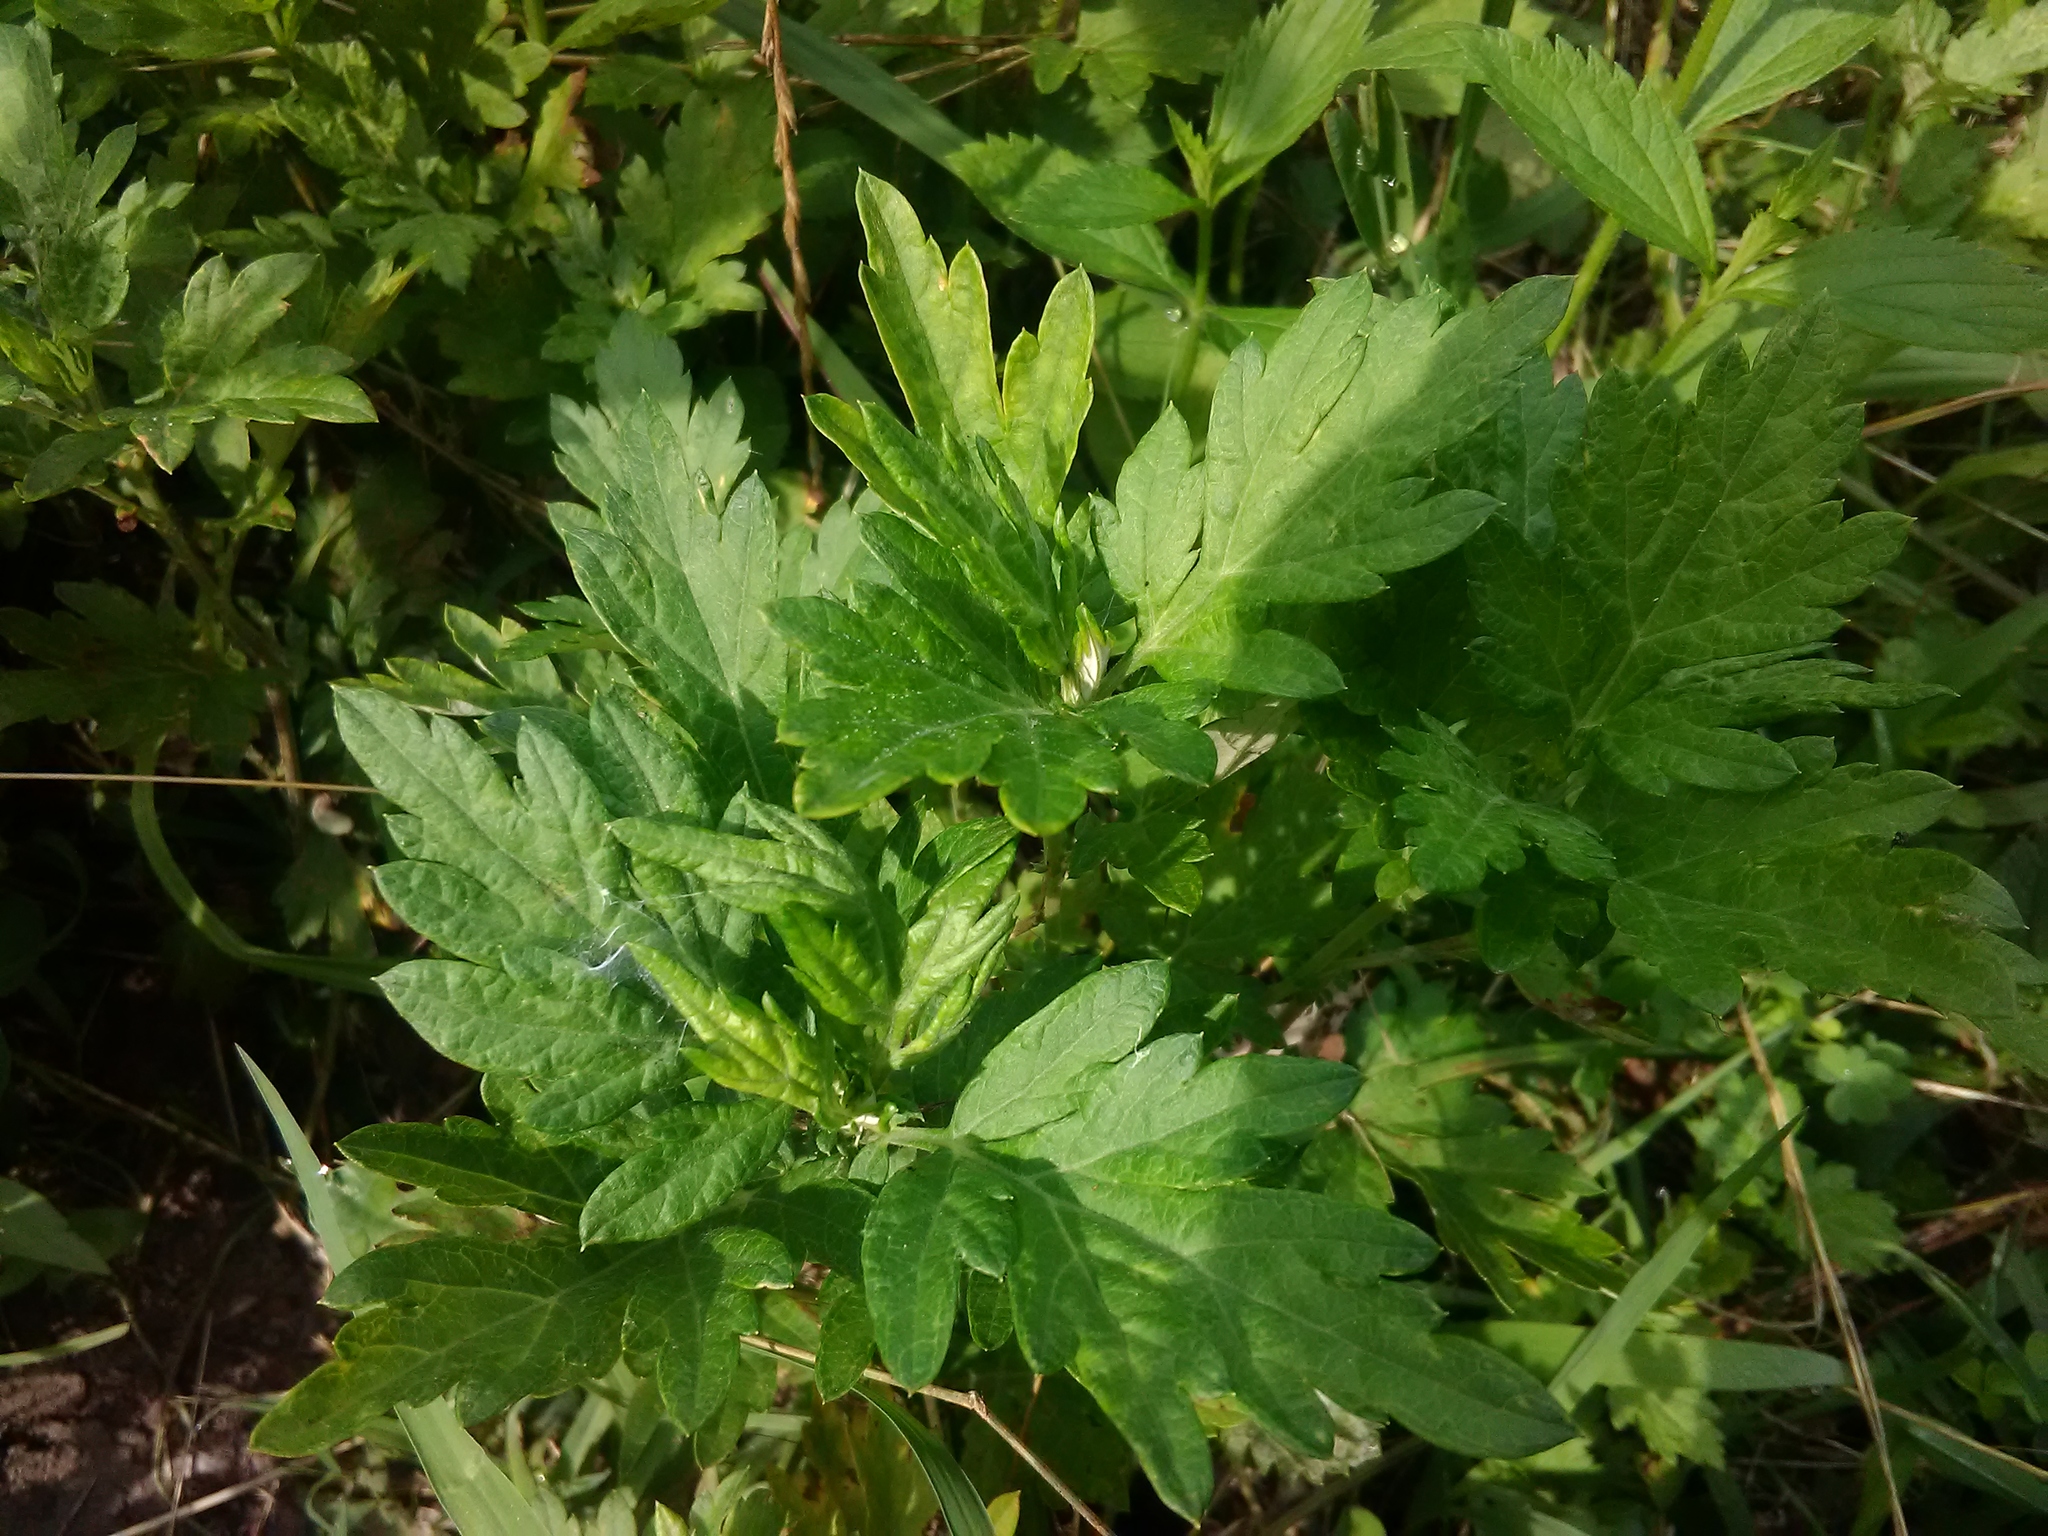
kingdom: Plantae
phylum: Tracheophyta
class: Magnoliopsida
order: Asterales
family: Asteraceae
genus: Artemisia
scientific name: Artemisia vulgaris
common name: Mugwort
